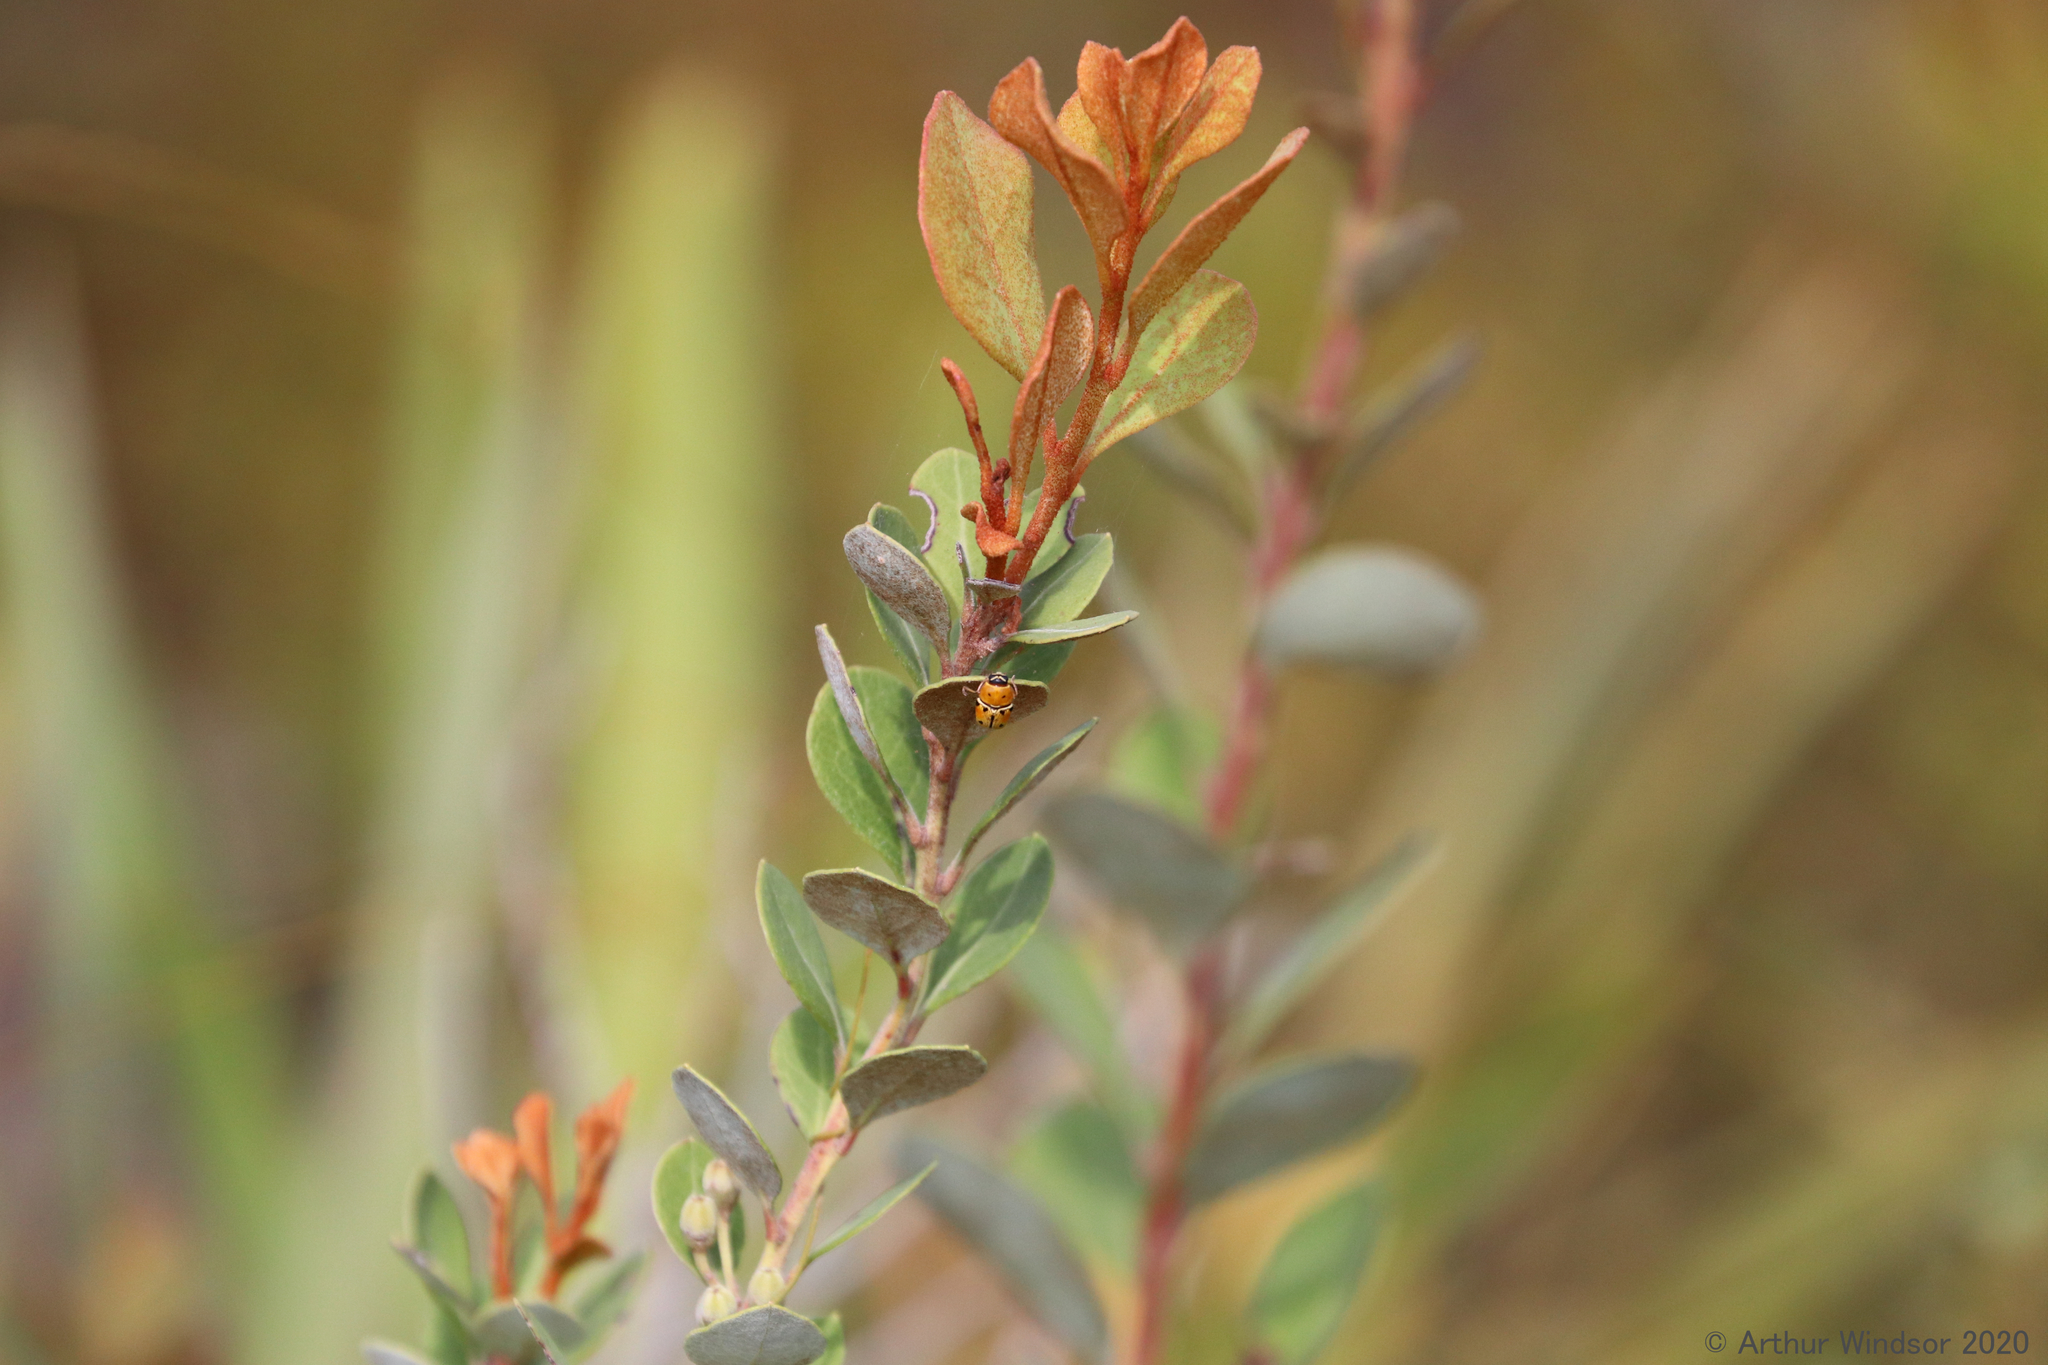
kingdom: Animalia
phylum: Arthropoda
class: Insecta
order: Coleoptera
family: Chrysomelidae
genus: Griburius
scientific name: Griburius larvatus
